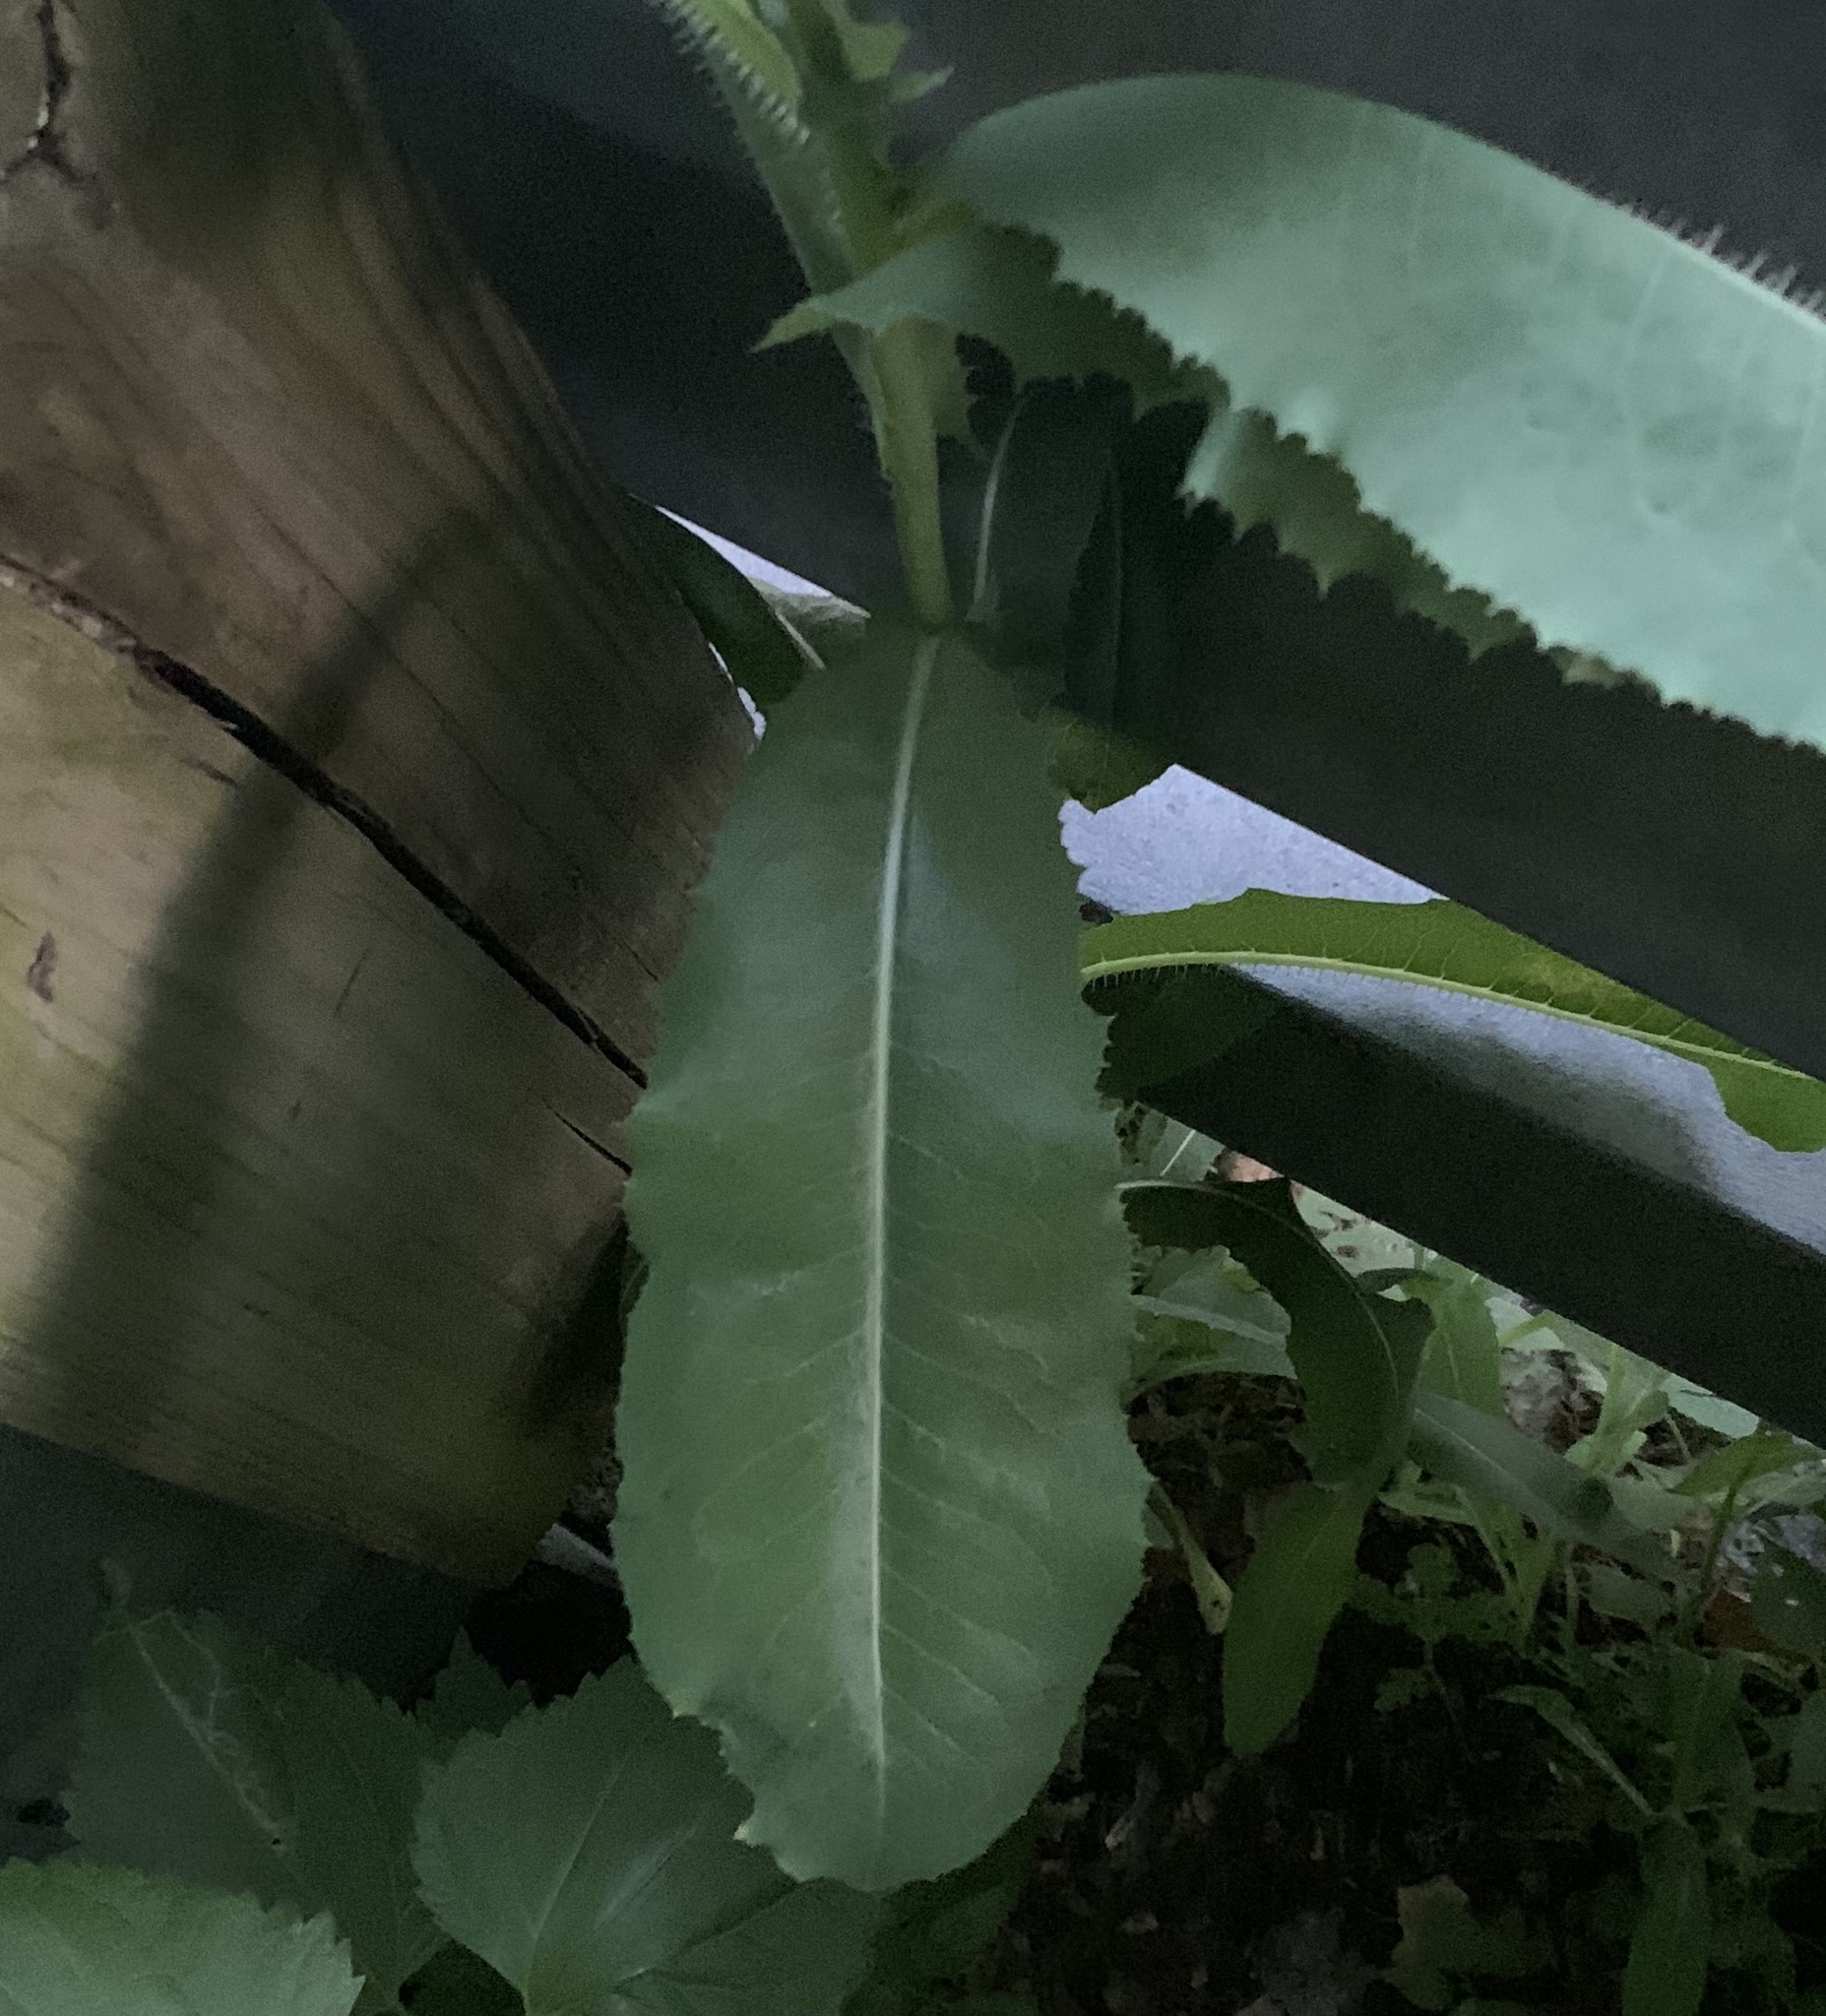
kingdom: Plantae
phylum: Tracheophyta
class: Magnoliopsida
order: Asterales
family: Asteraceae
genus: Lactuca
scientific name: Lactuca serriola
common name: Prickly lettuce
